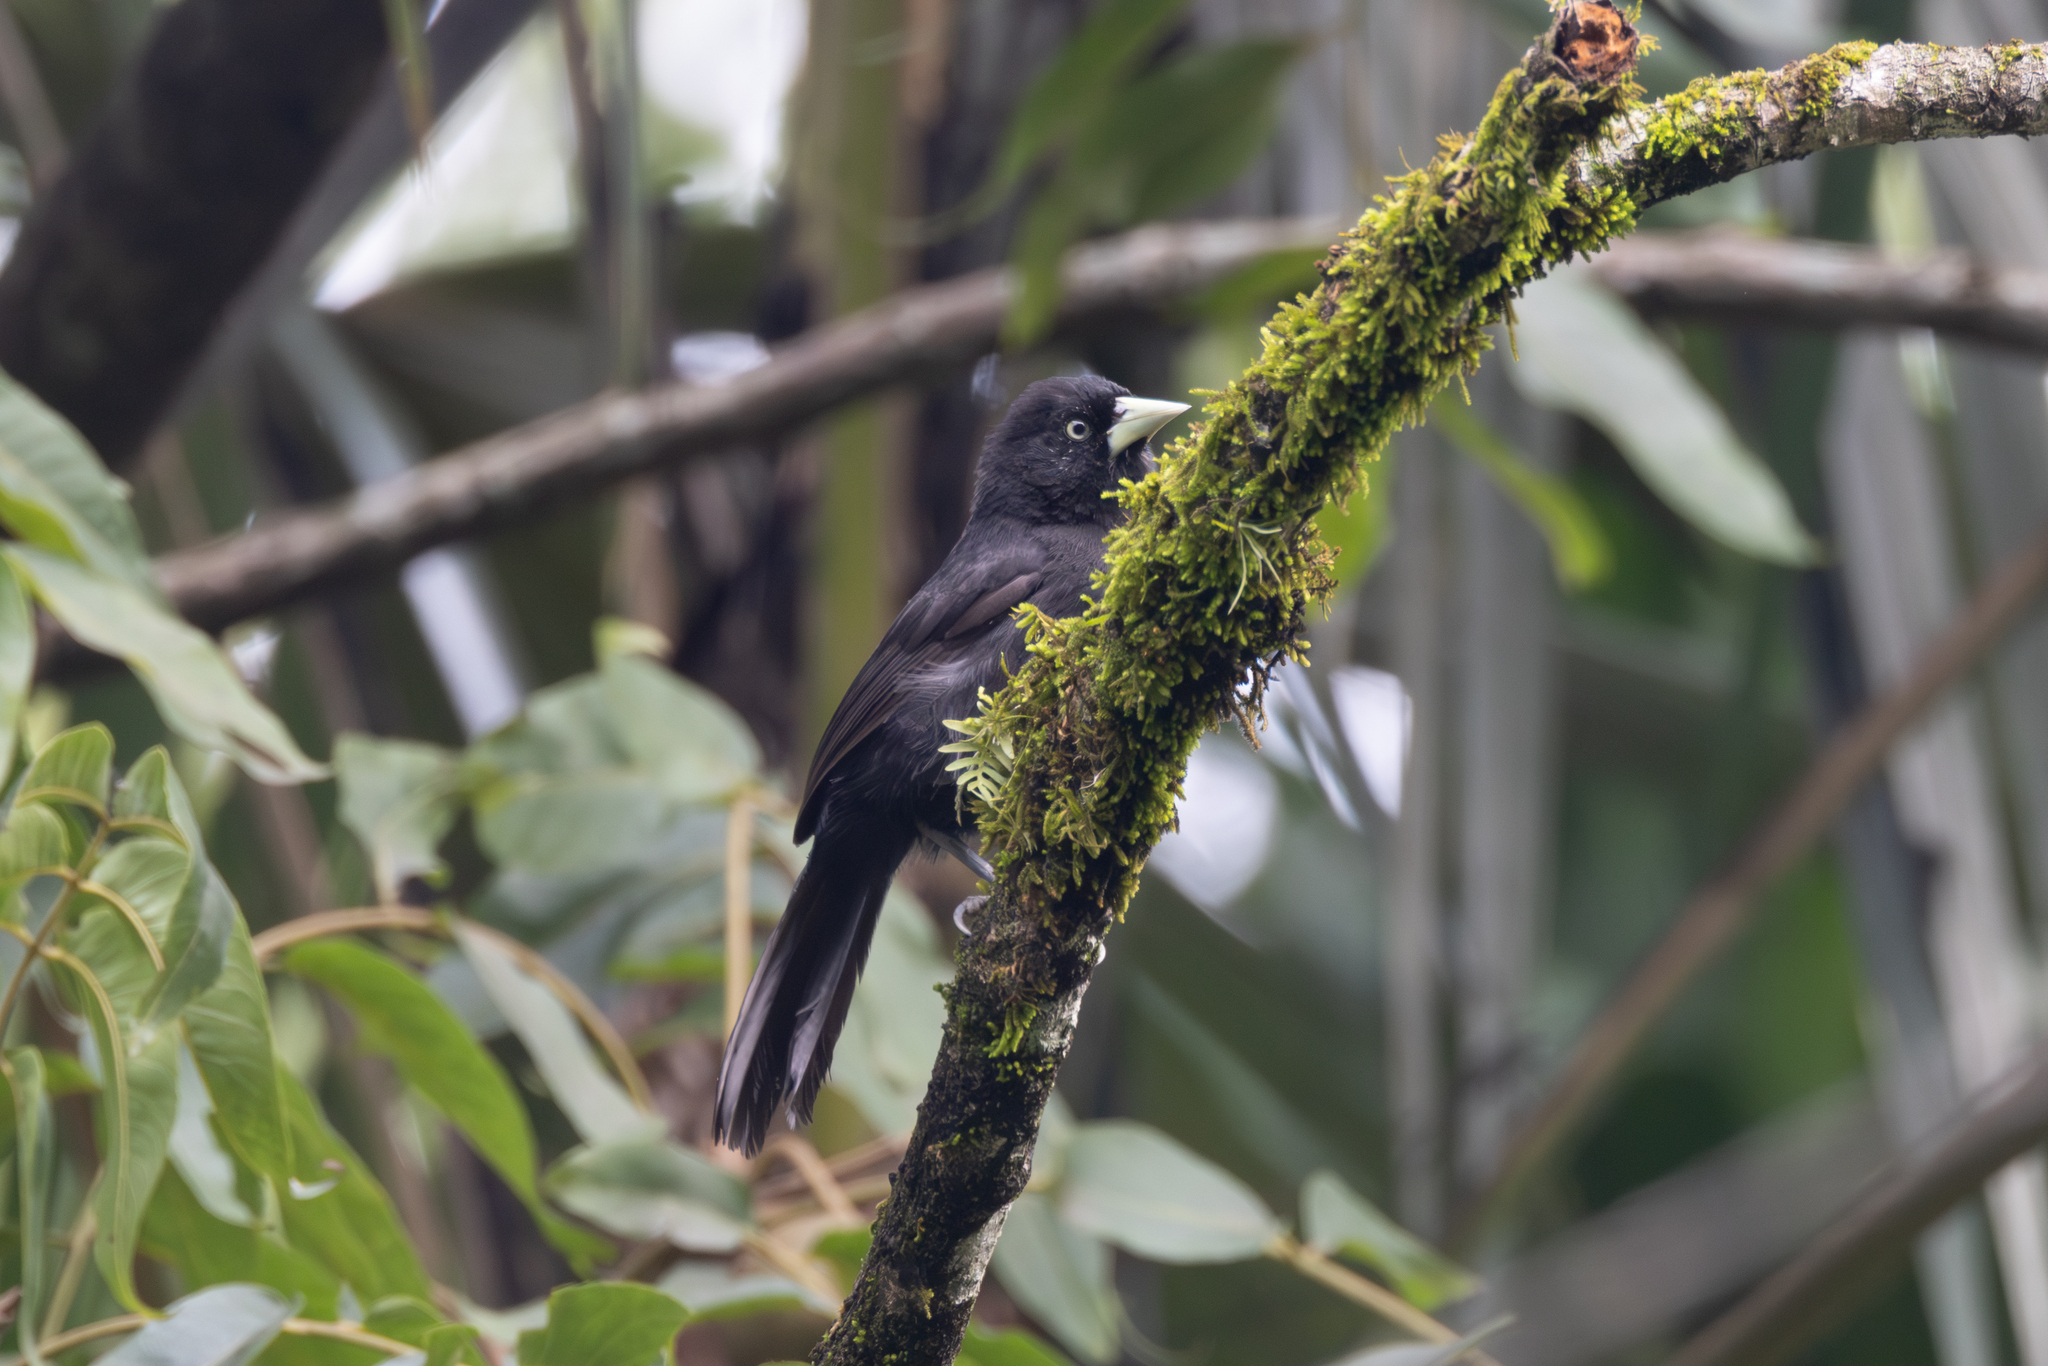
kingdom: Animalia
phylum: Chordata
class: Aves
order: Passeriformes
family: Icteridae
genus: Amblycercus
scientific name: Amblycercus holosericeus
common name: Yellow-billed cacique
